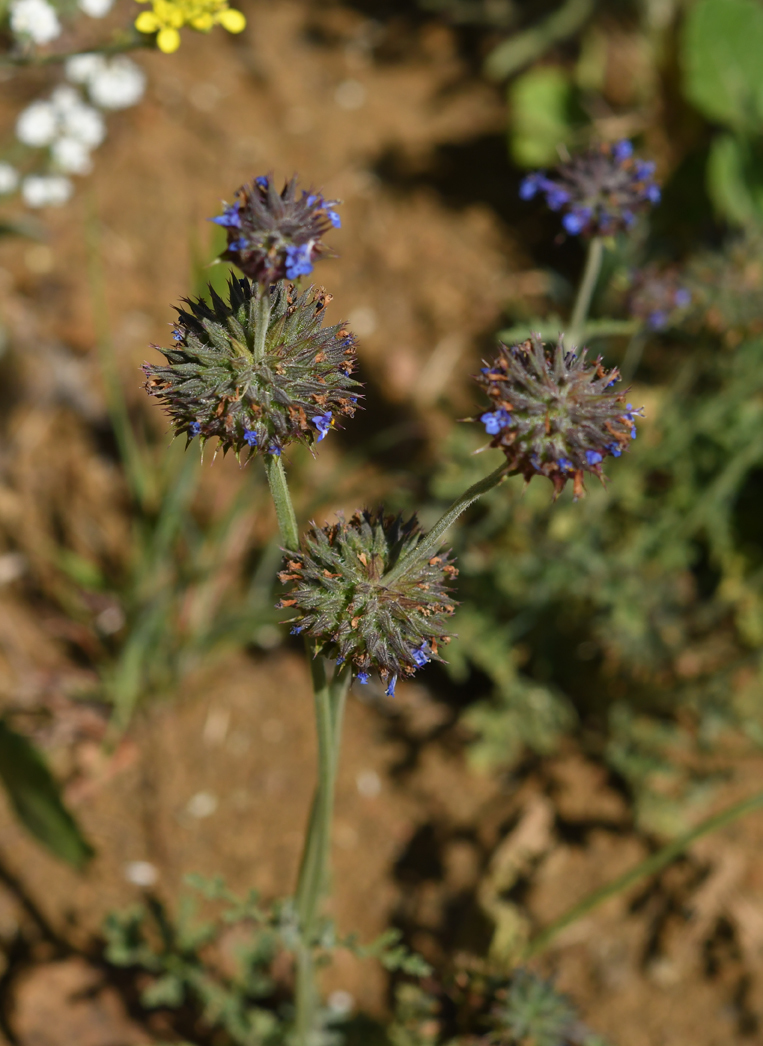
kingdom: Plantae
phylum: Tracheophyta
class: Magnoliopsida
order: Lamiales
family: Lamiaceae
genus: Salvia
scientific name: Salvia columbariae
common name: Chia
